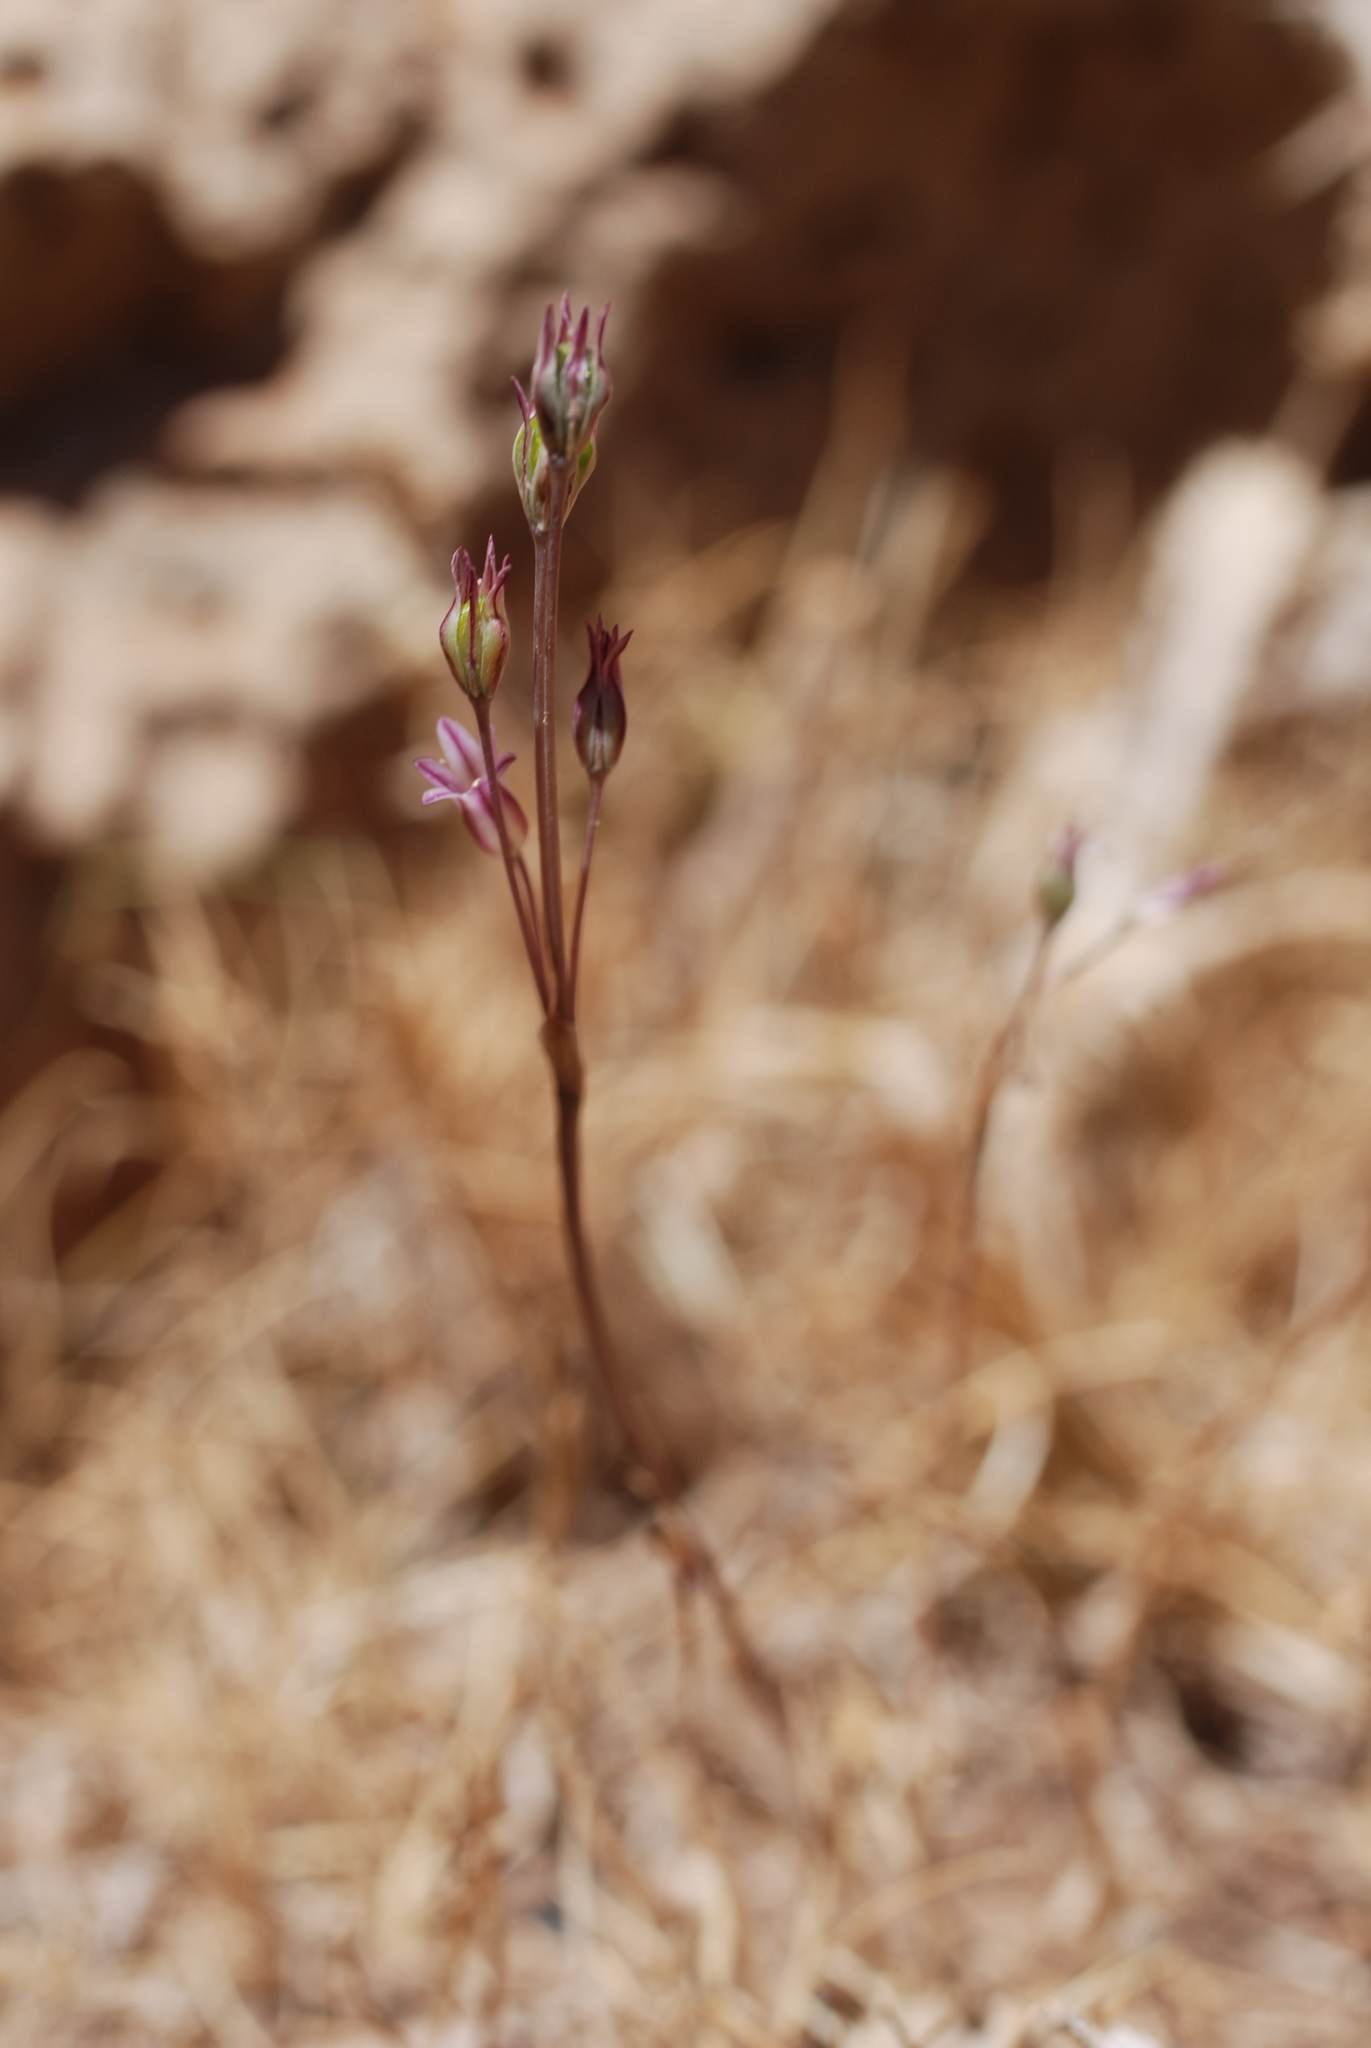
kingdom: Plantae
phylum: Tracheophyta
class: Liliopsida
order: Asparagales
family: Amaryllidaceae
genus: Allium
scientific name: Allium parciflorum
